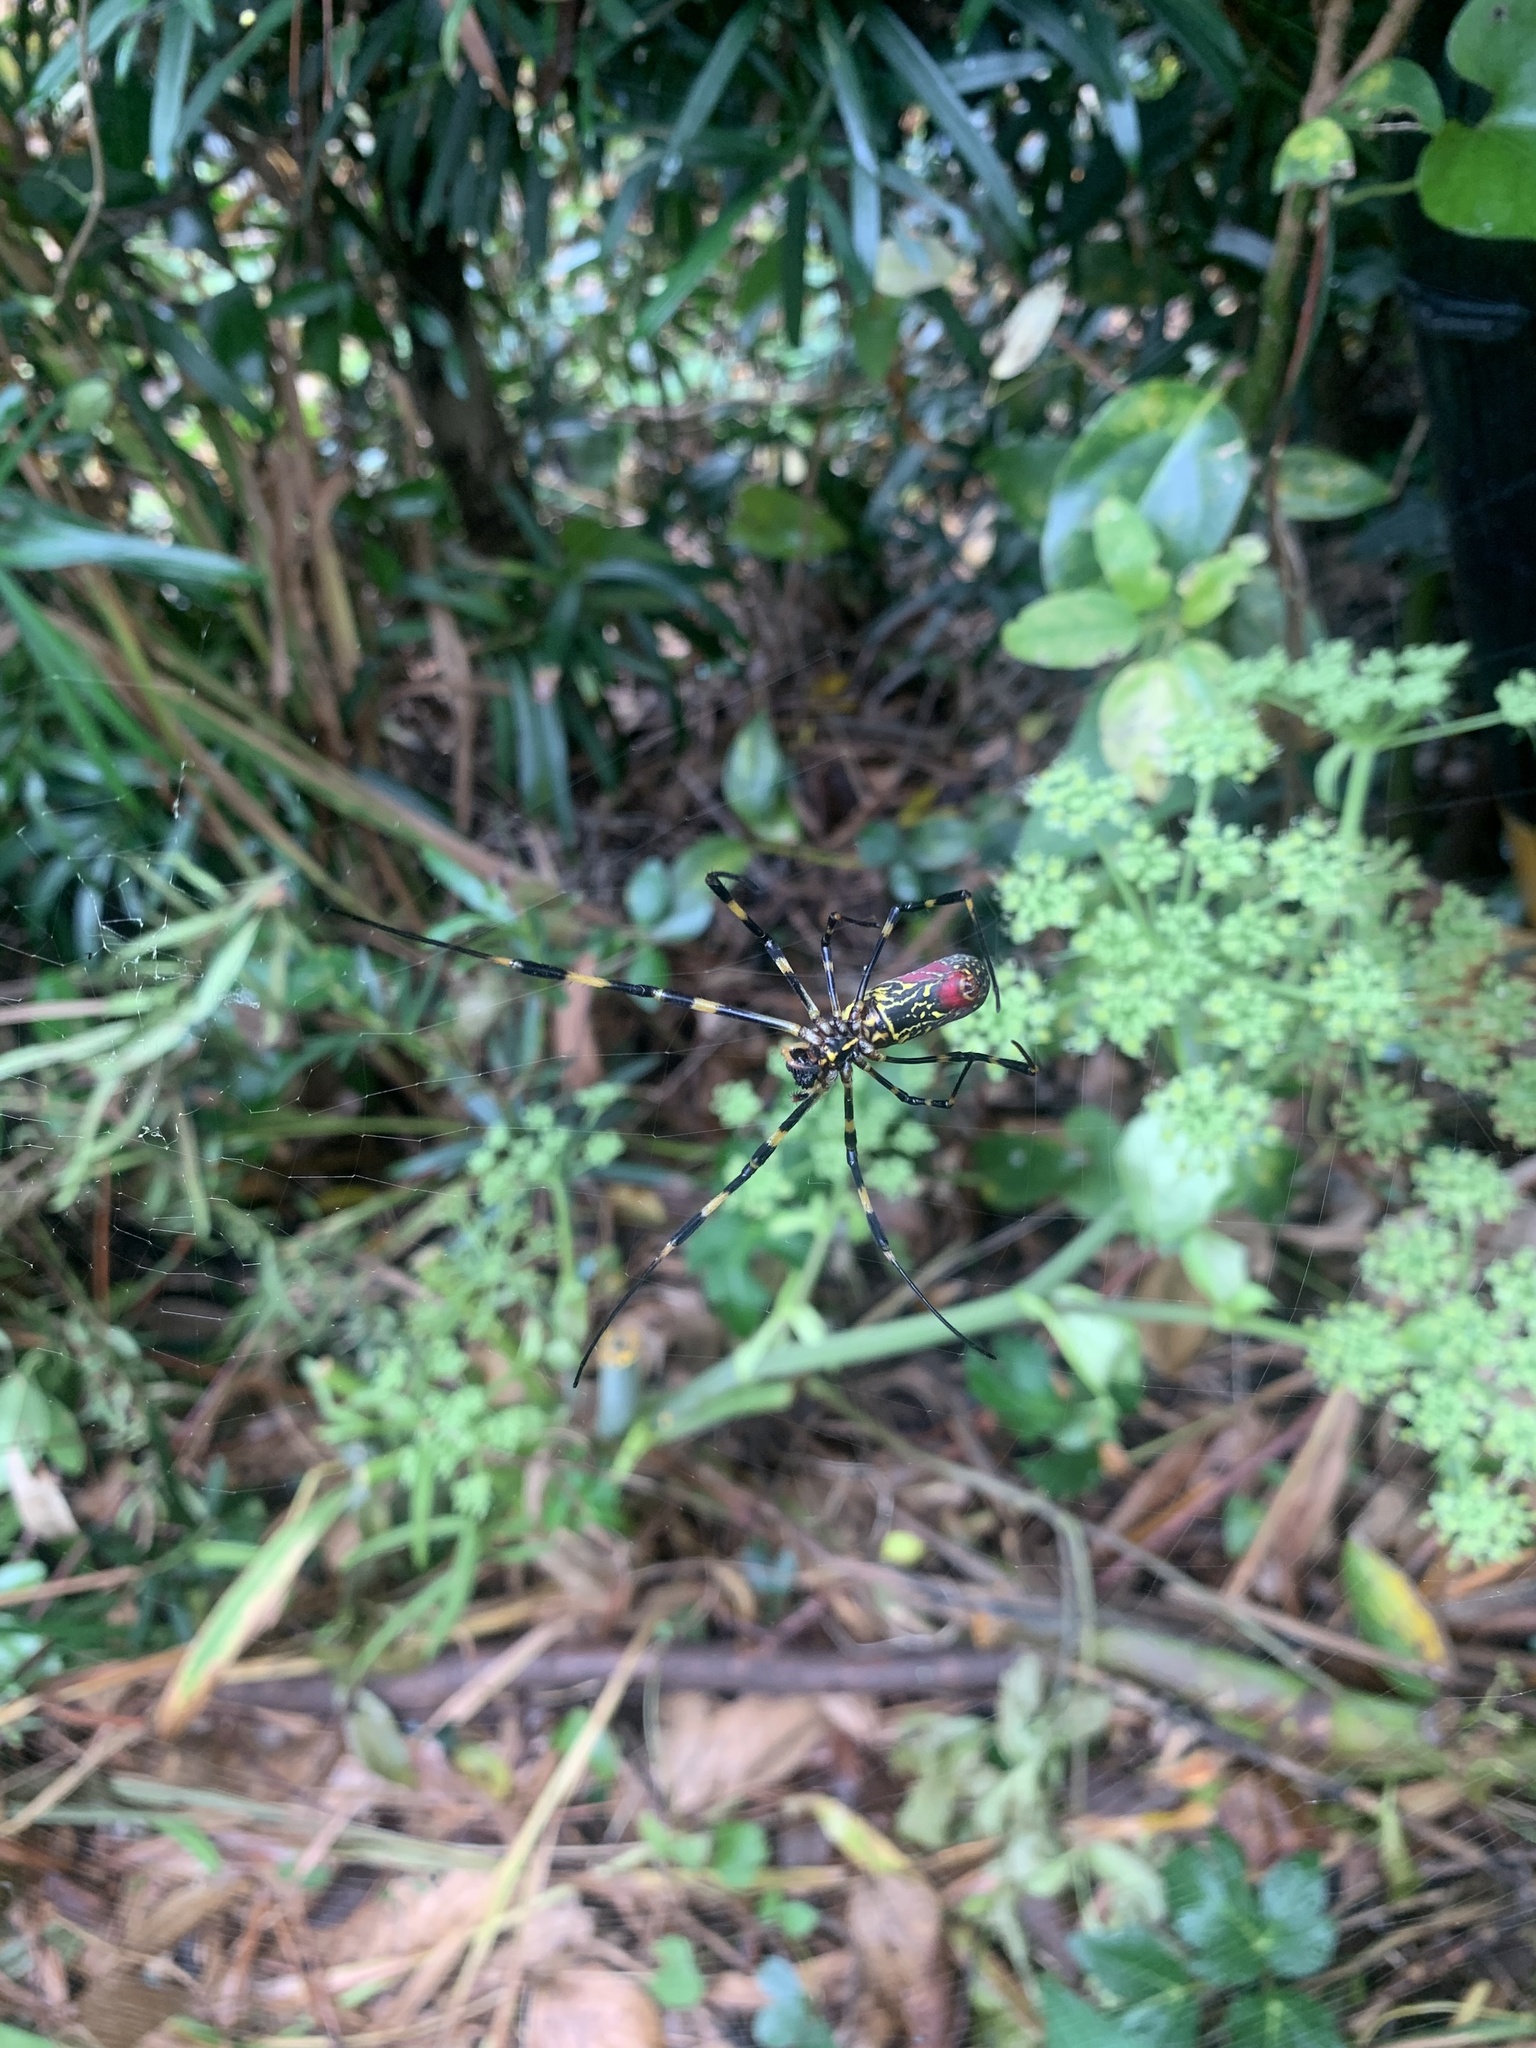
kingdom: Animalia
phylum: Arthropoda
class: Arachnida
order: Araneae
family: Araneidae
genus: Trichonephila
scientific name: Trichonephila clavata
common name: Jorō spider
